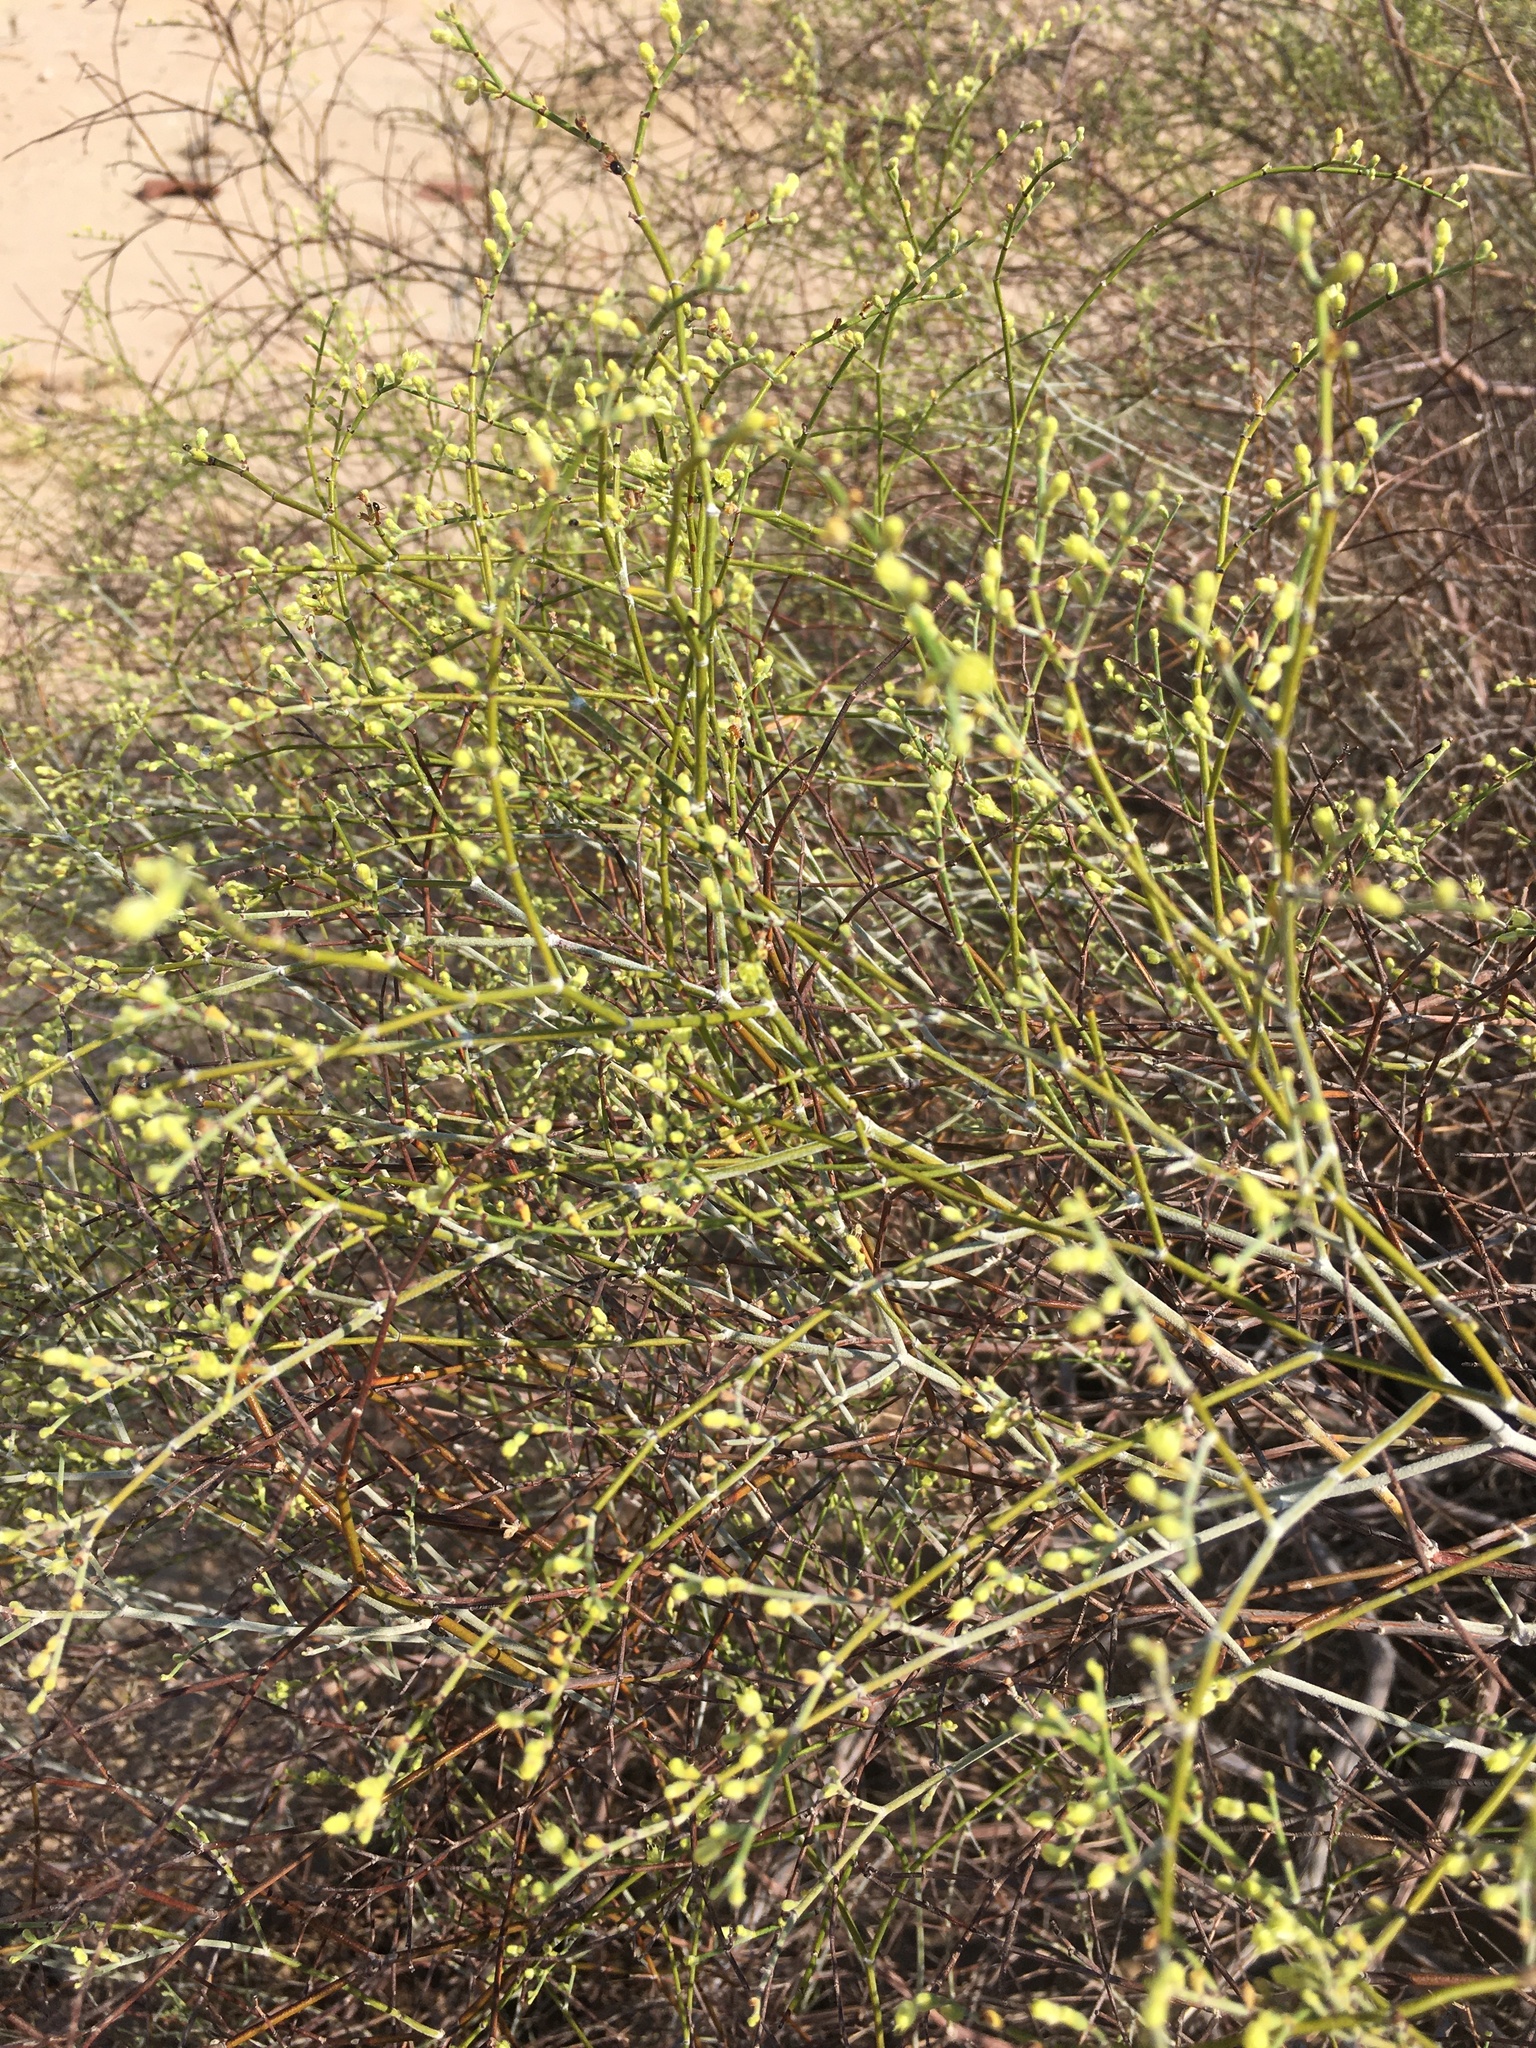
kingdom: Plantae
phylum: Tracheophyta
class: Magnoliopsida
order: Caryophyllales
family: Polygonaceae
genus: Eriogonum
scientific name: Eriogonum deserticola
